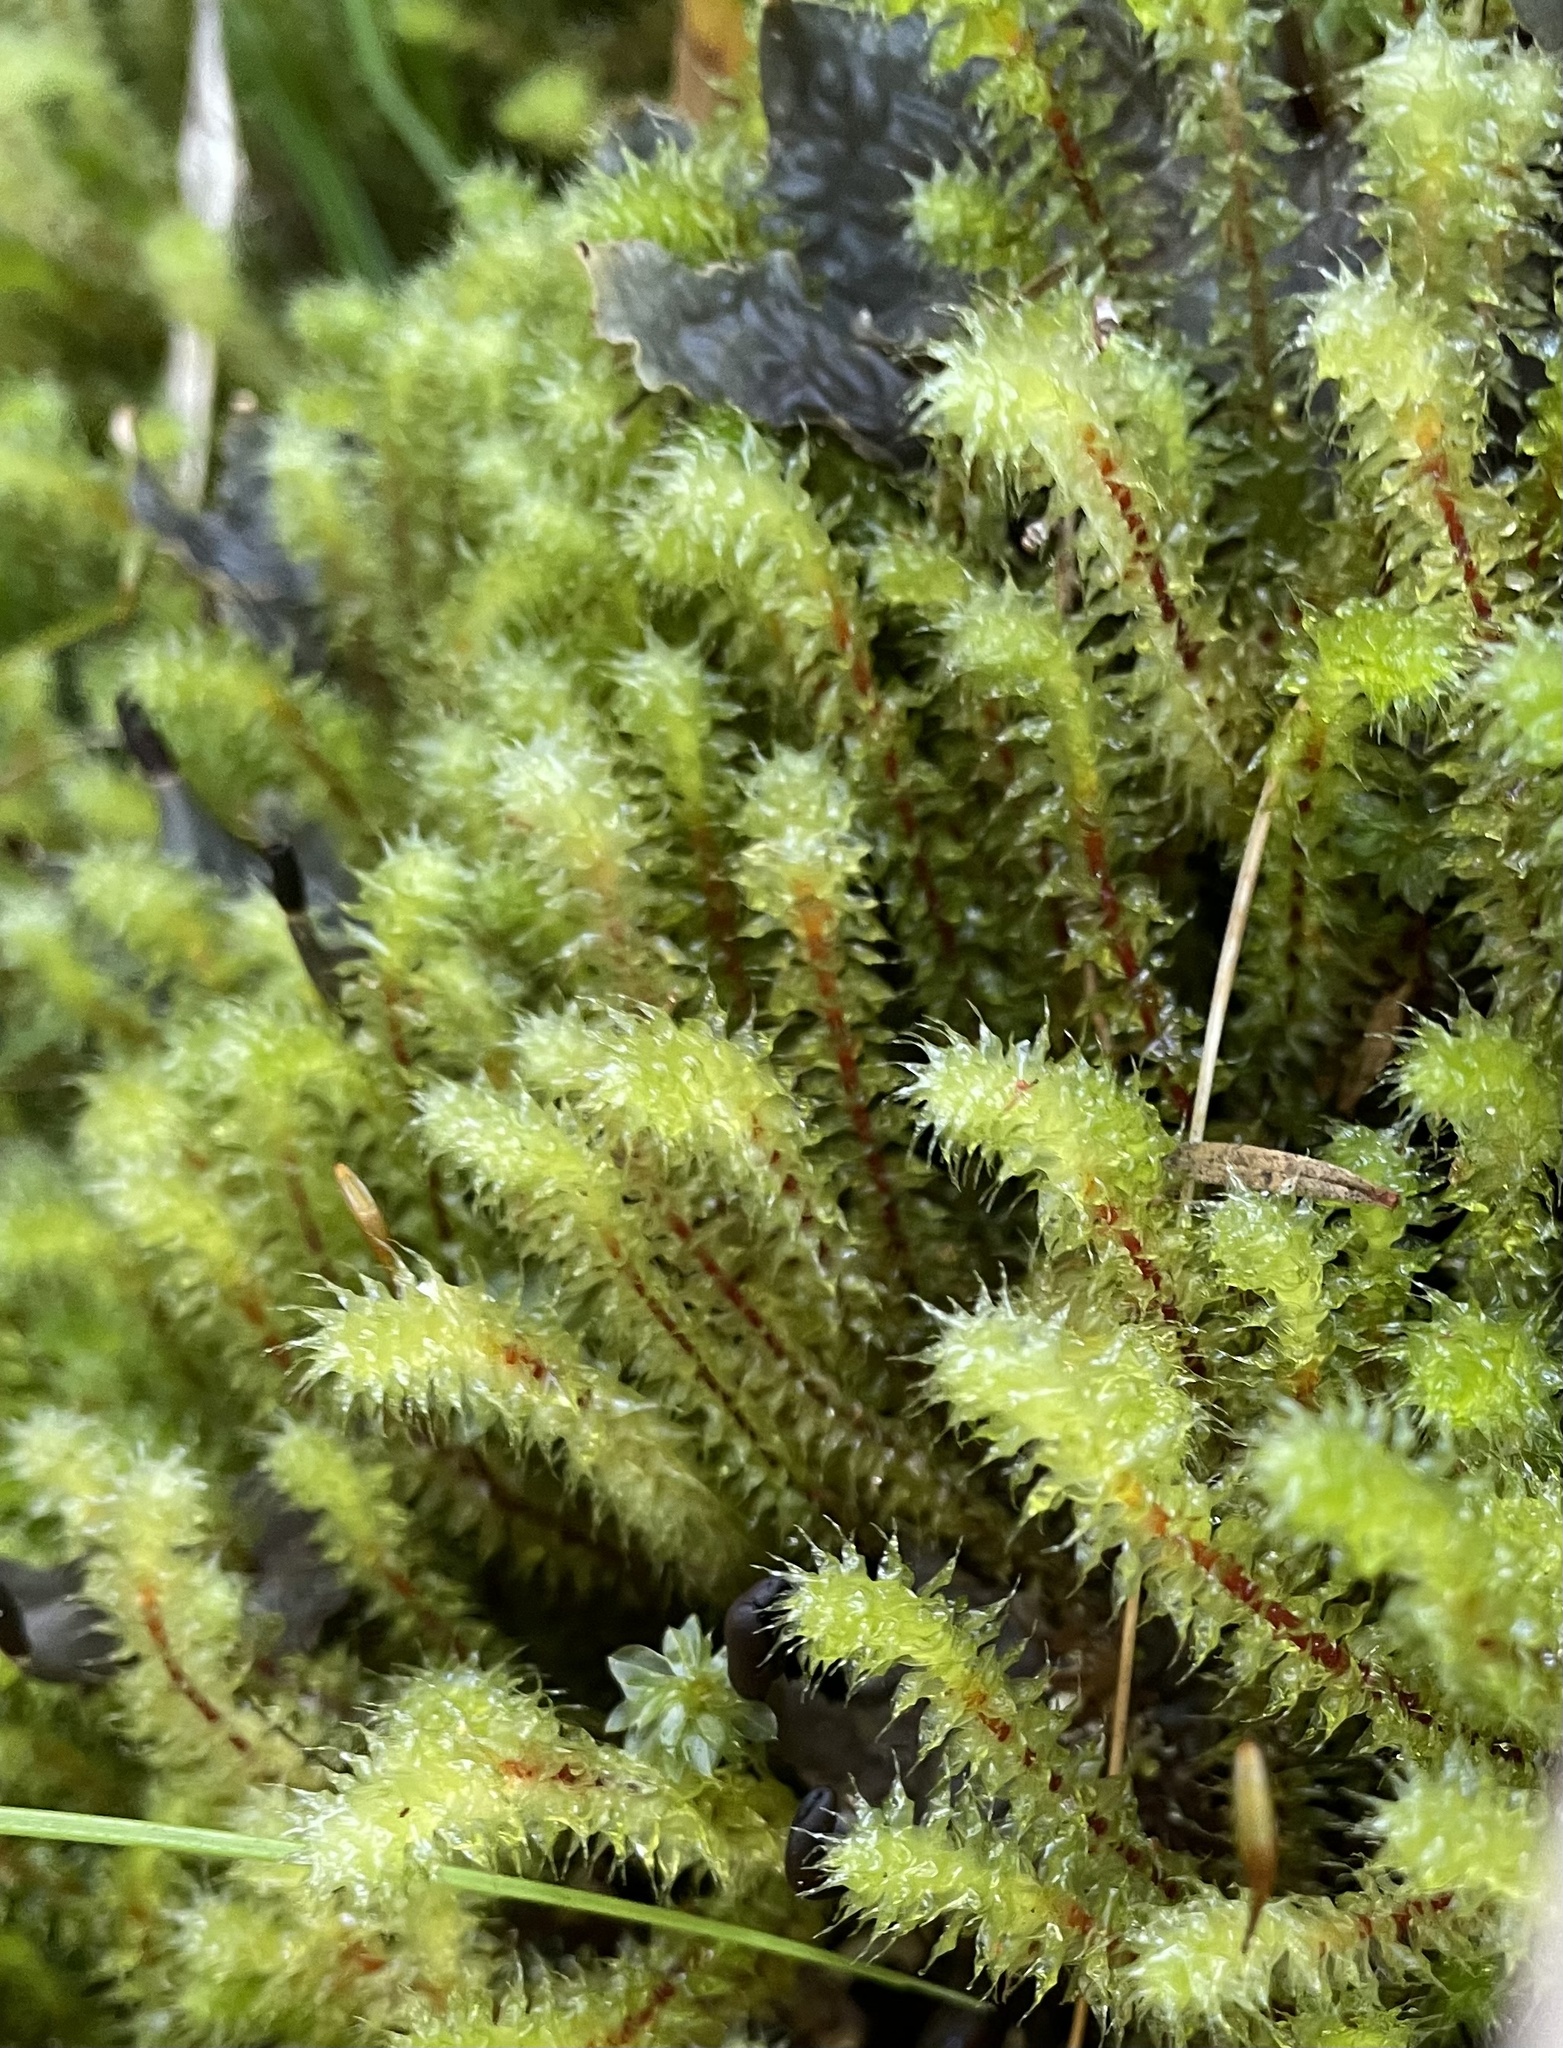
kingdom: Plantae
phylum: Bryophyta
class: Bryopsida
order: Ptychomniales
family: Ptychomniaceae
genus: Ptychomnion
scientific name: Ptychomnion aciculare
